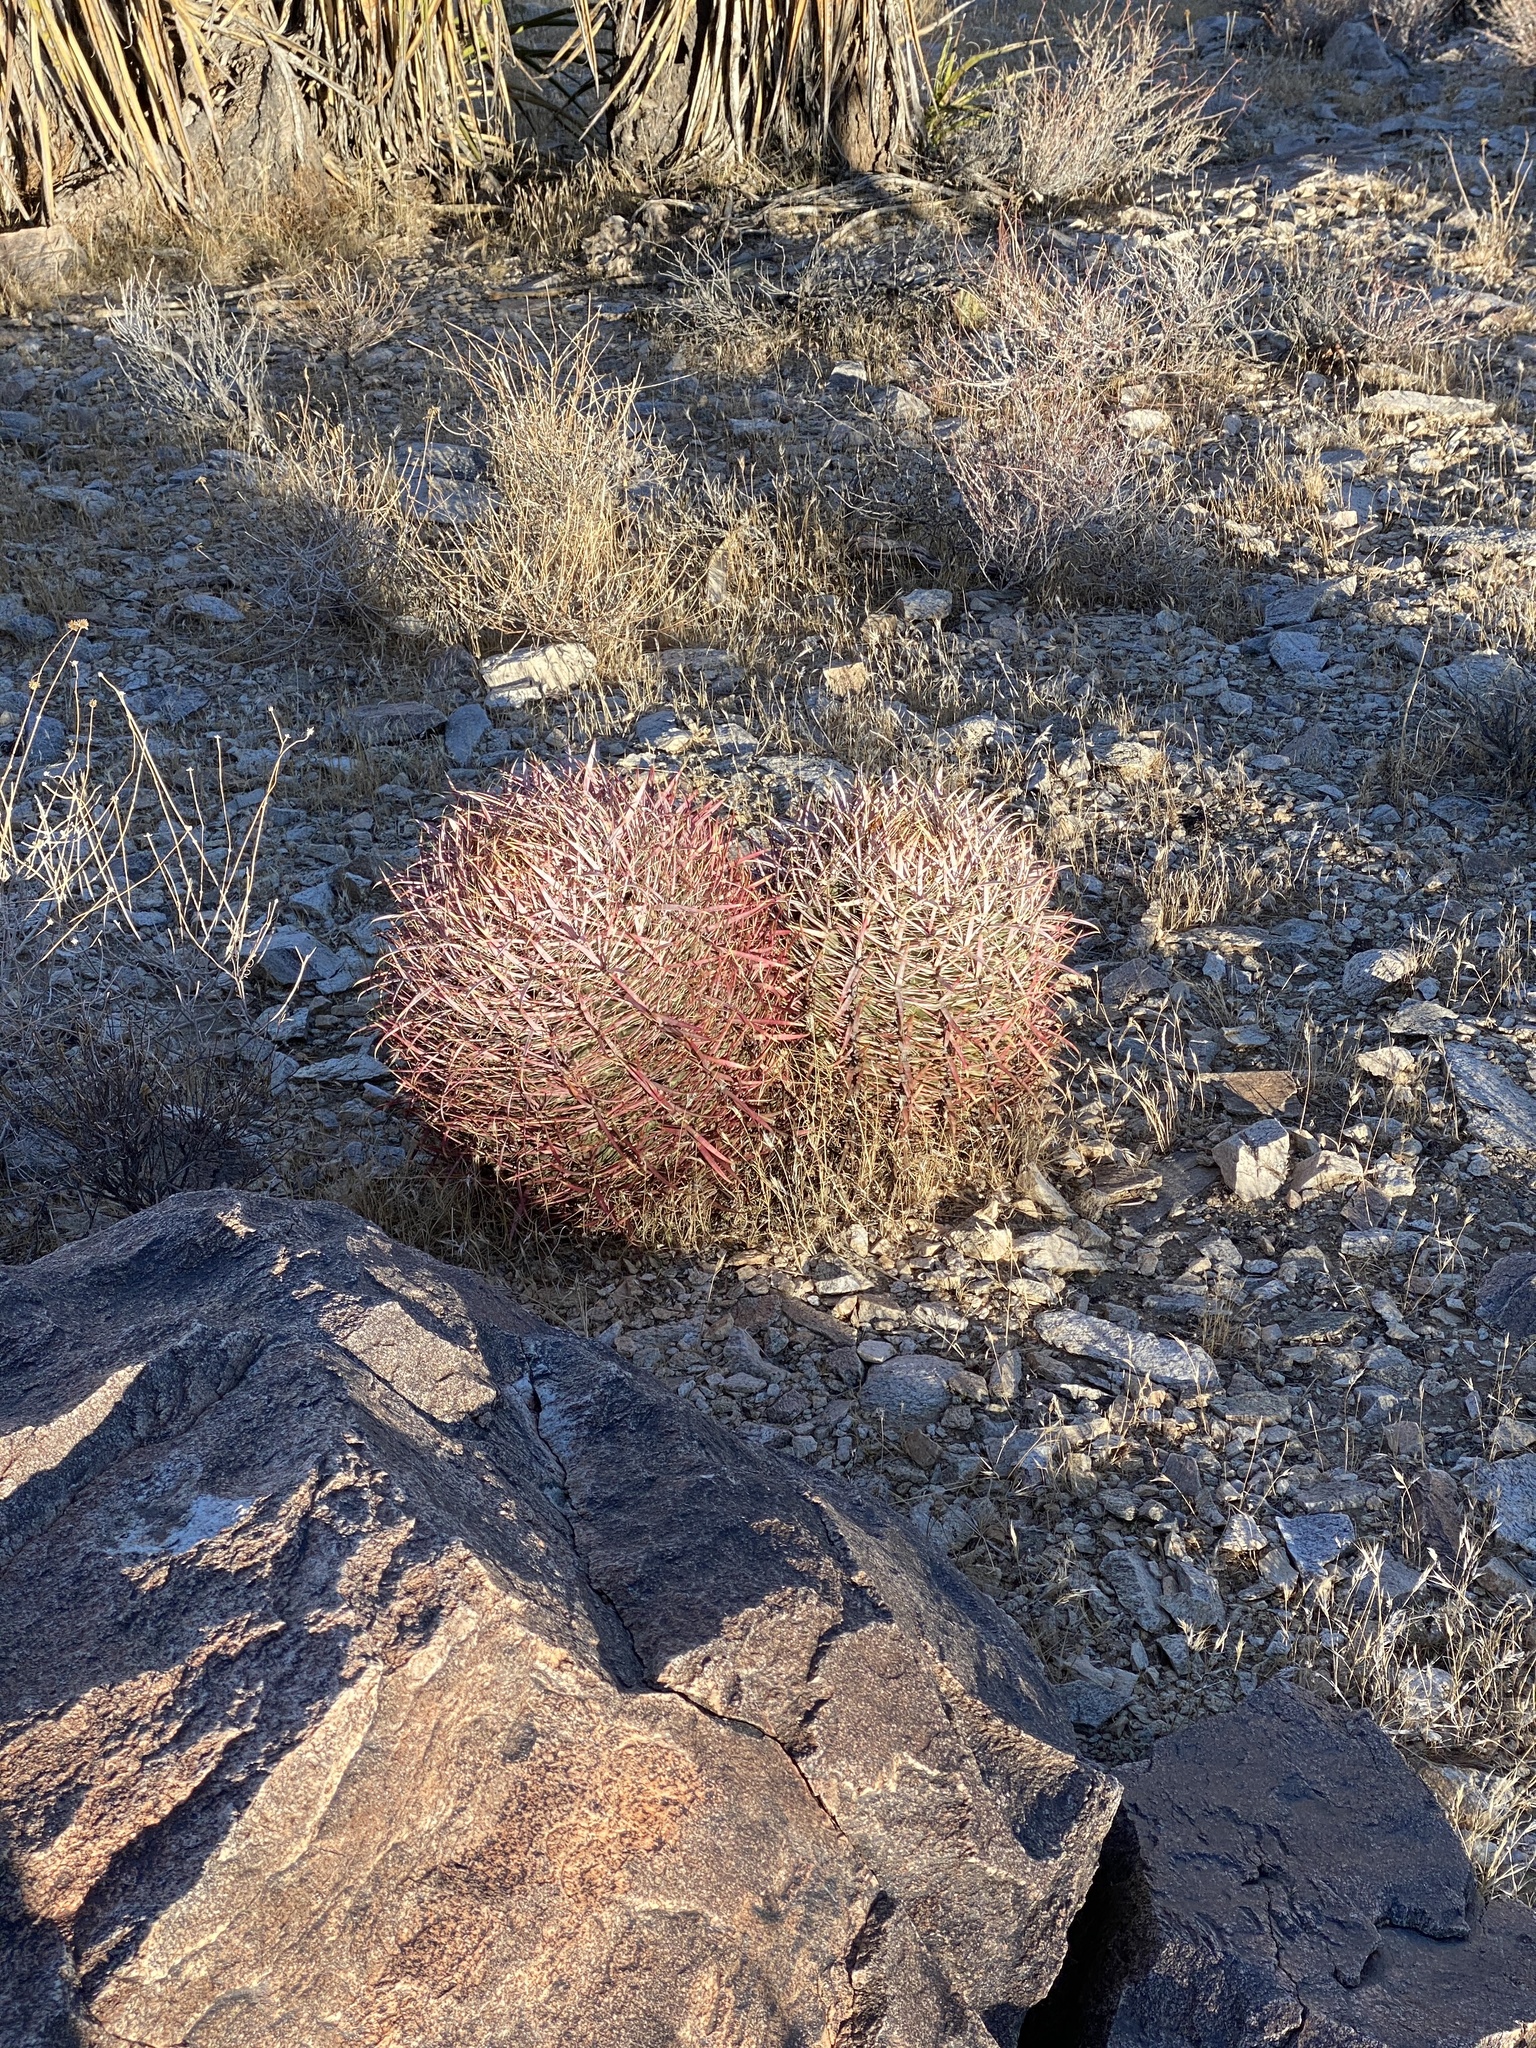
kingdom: Plantae
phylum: Tracheophyta
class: Magnoliopsida
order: Caryophyllales
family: Cactaceae
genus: Ferocactus
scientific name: Ferocactus cylindraceus
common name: California barrel cactus
